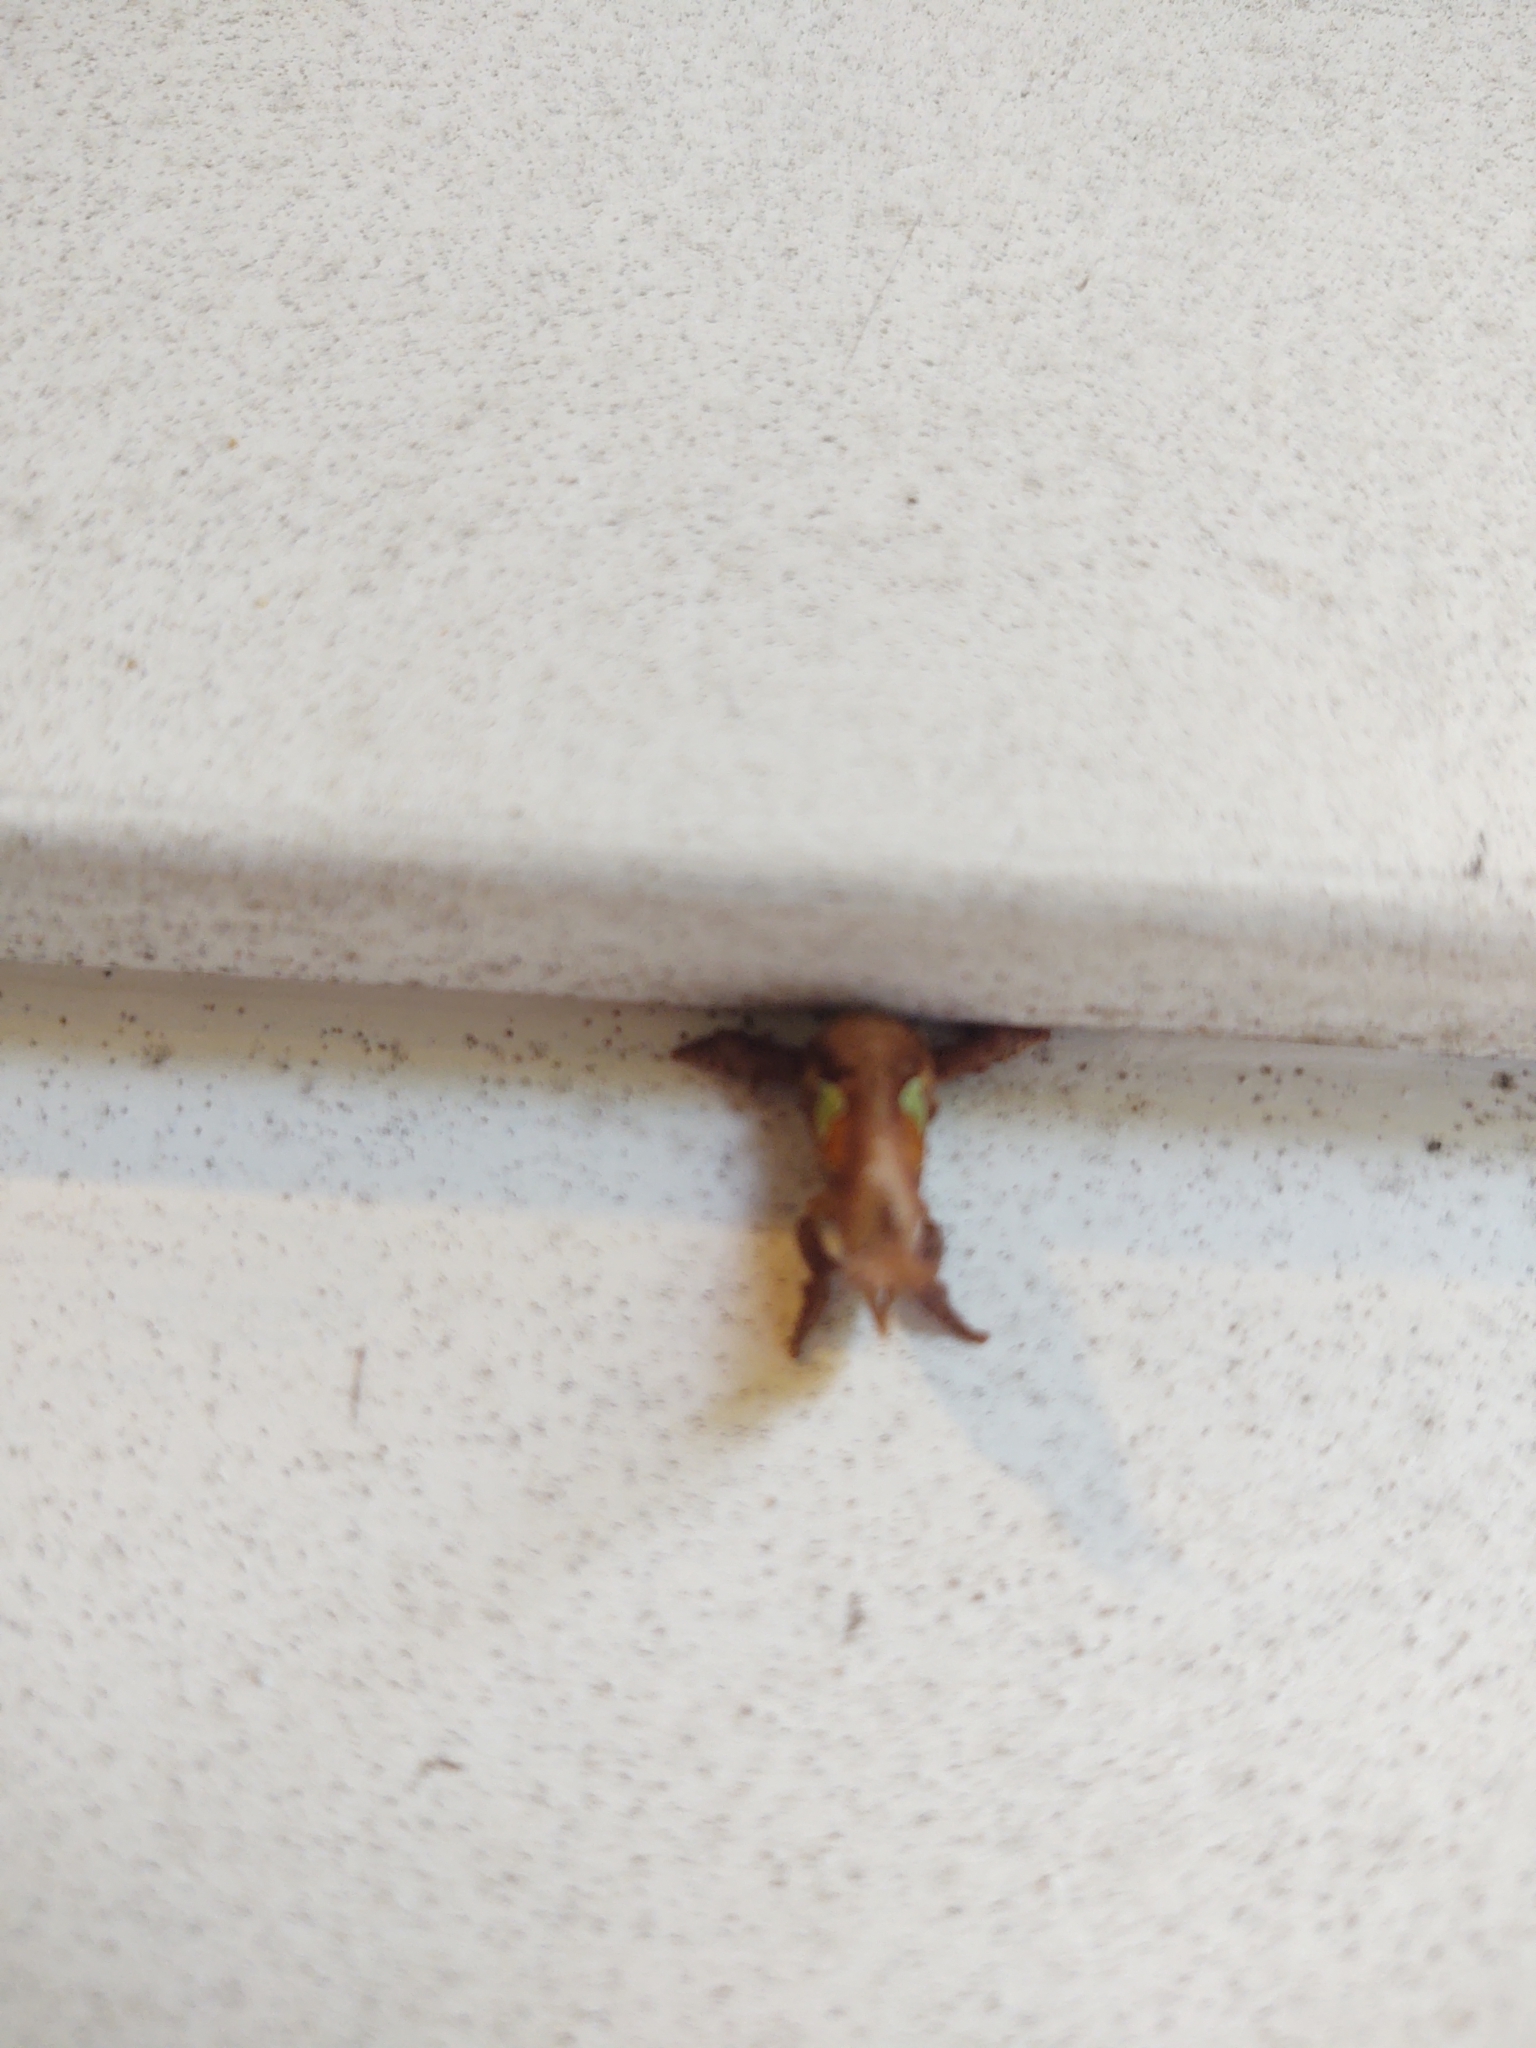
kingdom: Animalia
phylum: Arthropoda
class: Insecta
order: Lepidoptera
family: Limacodidae
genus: Euclea
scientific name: Euclea delphinii
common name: Spiny oak-slug moth
